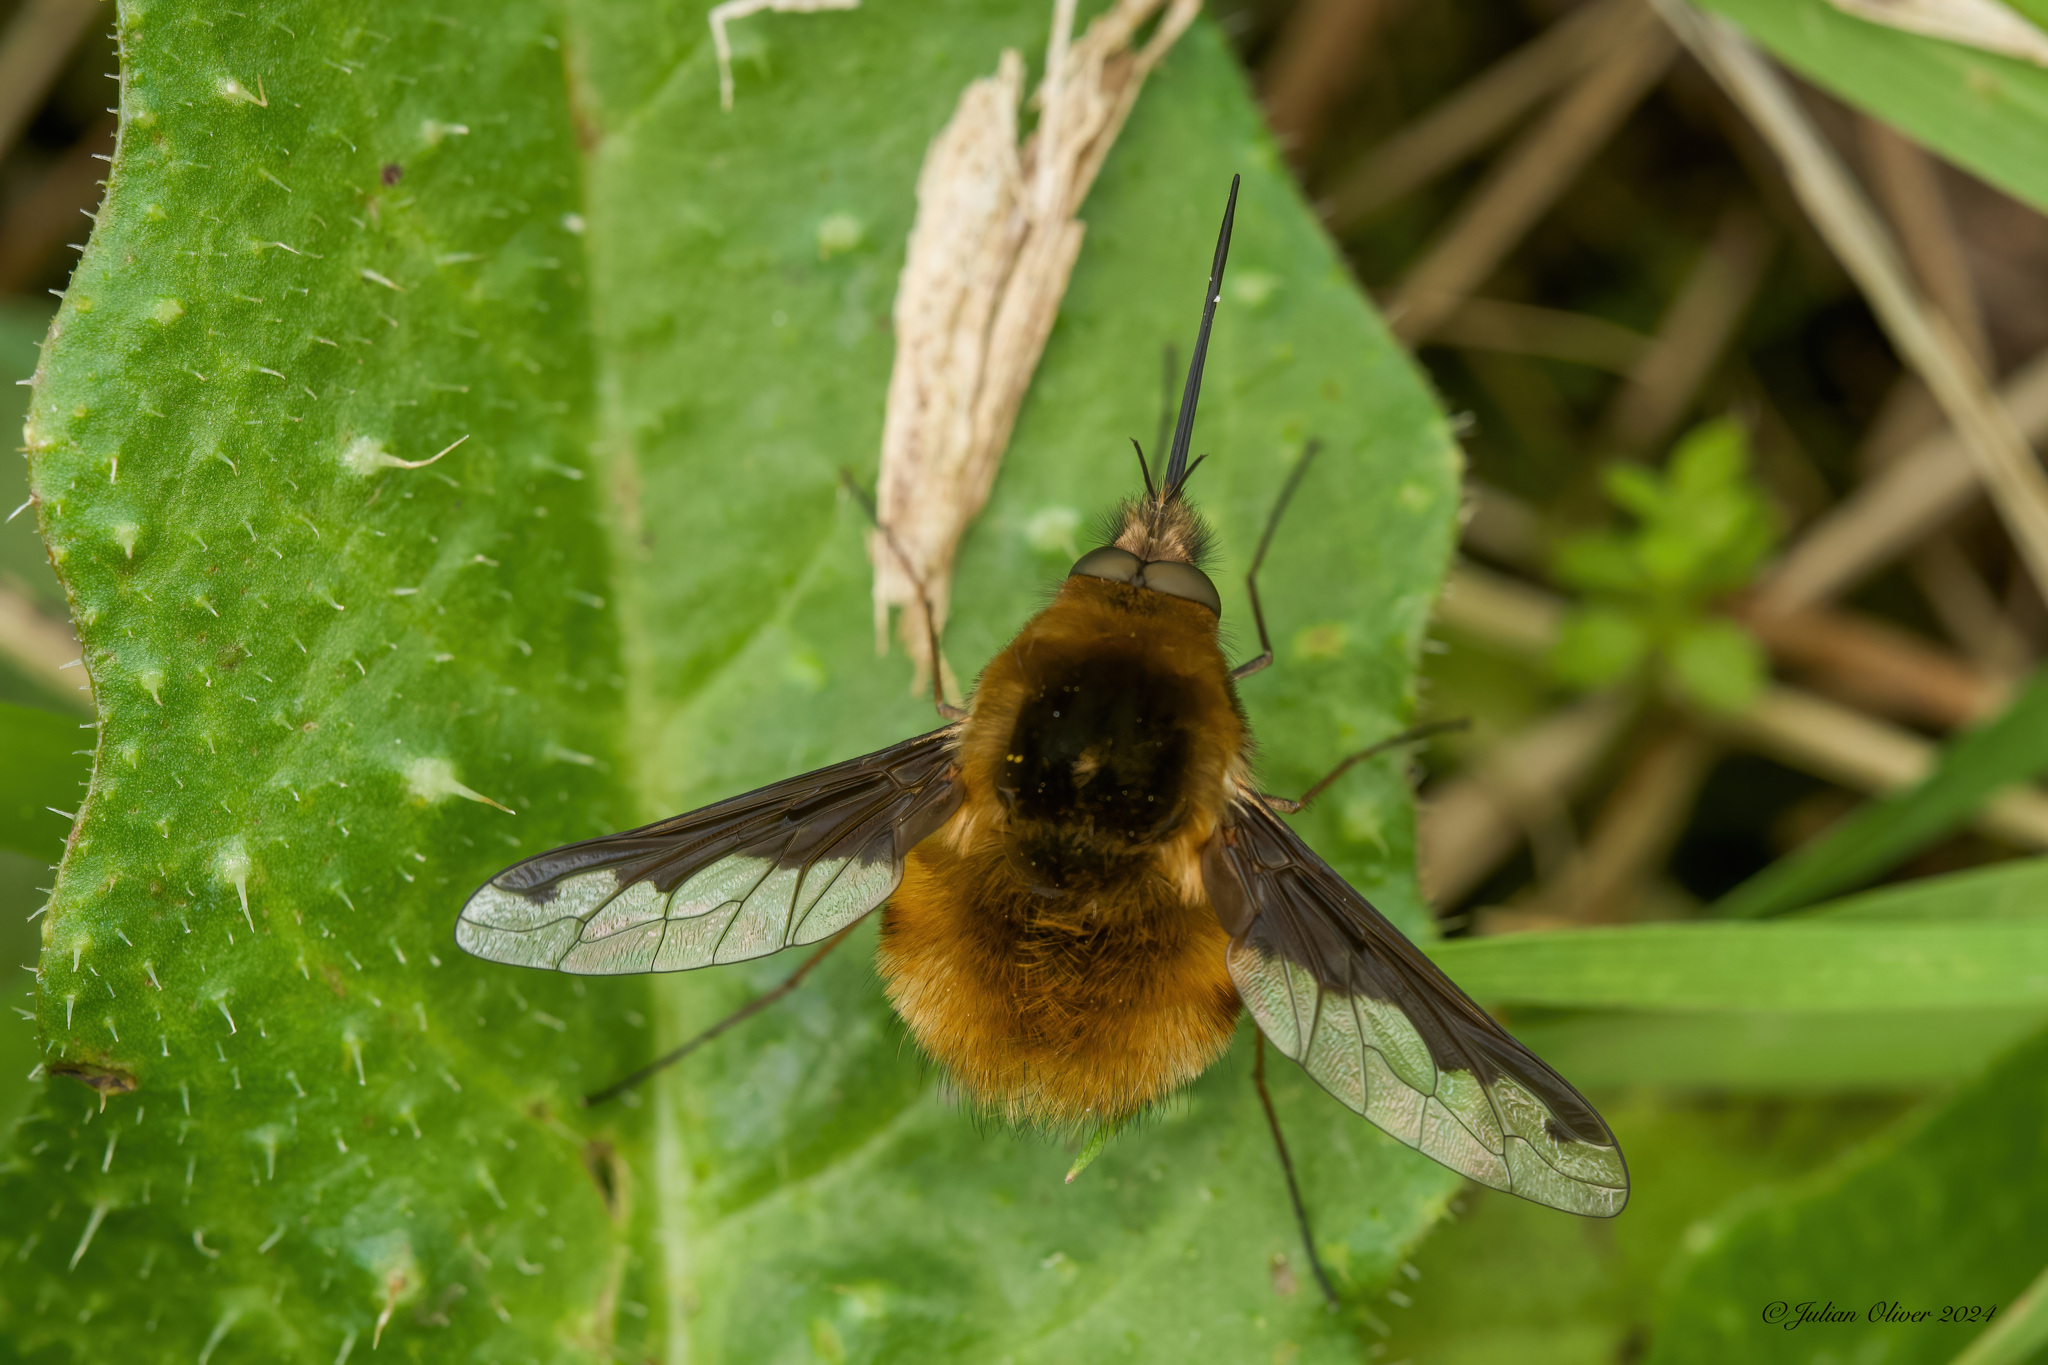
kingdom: Animalia
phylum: Arthropoda
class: Insecta
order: Diptera
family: Bombyliidae
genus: Bombylius
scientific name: Bombylius major
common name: Bee fly
